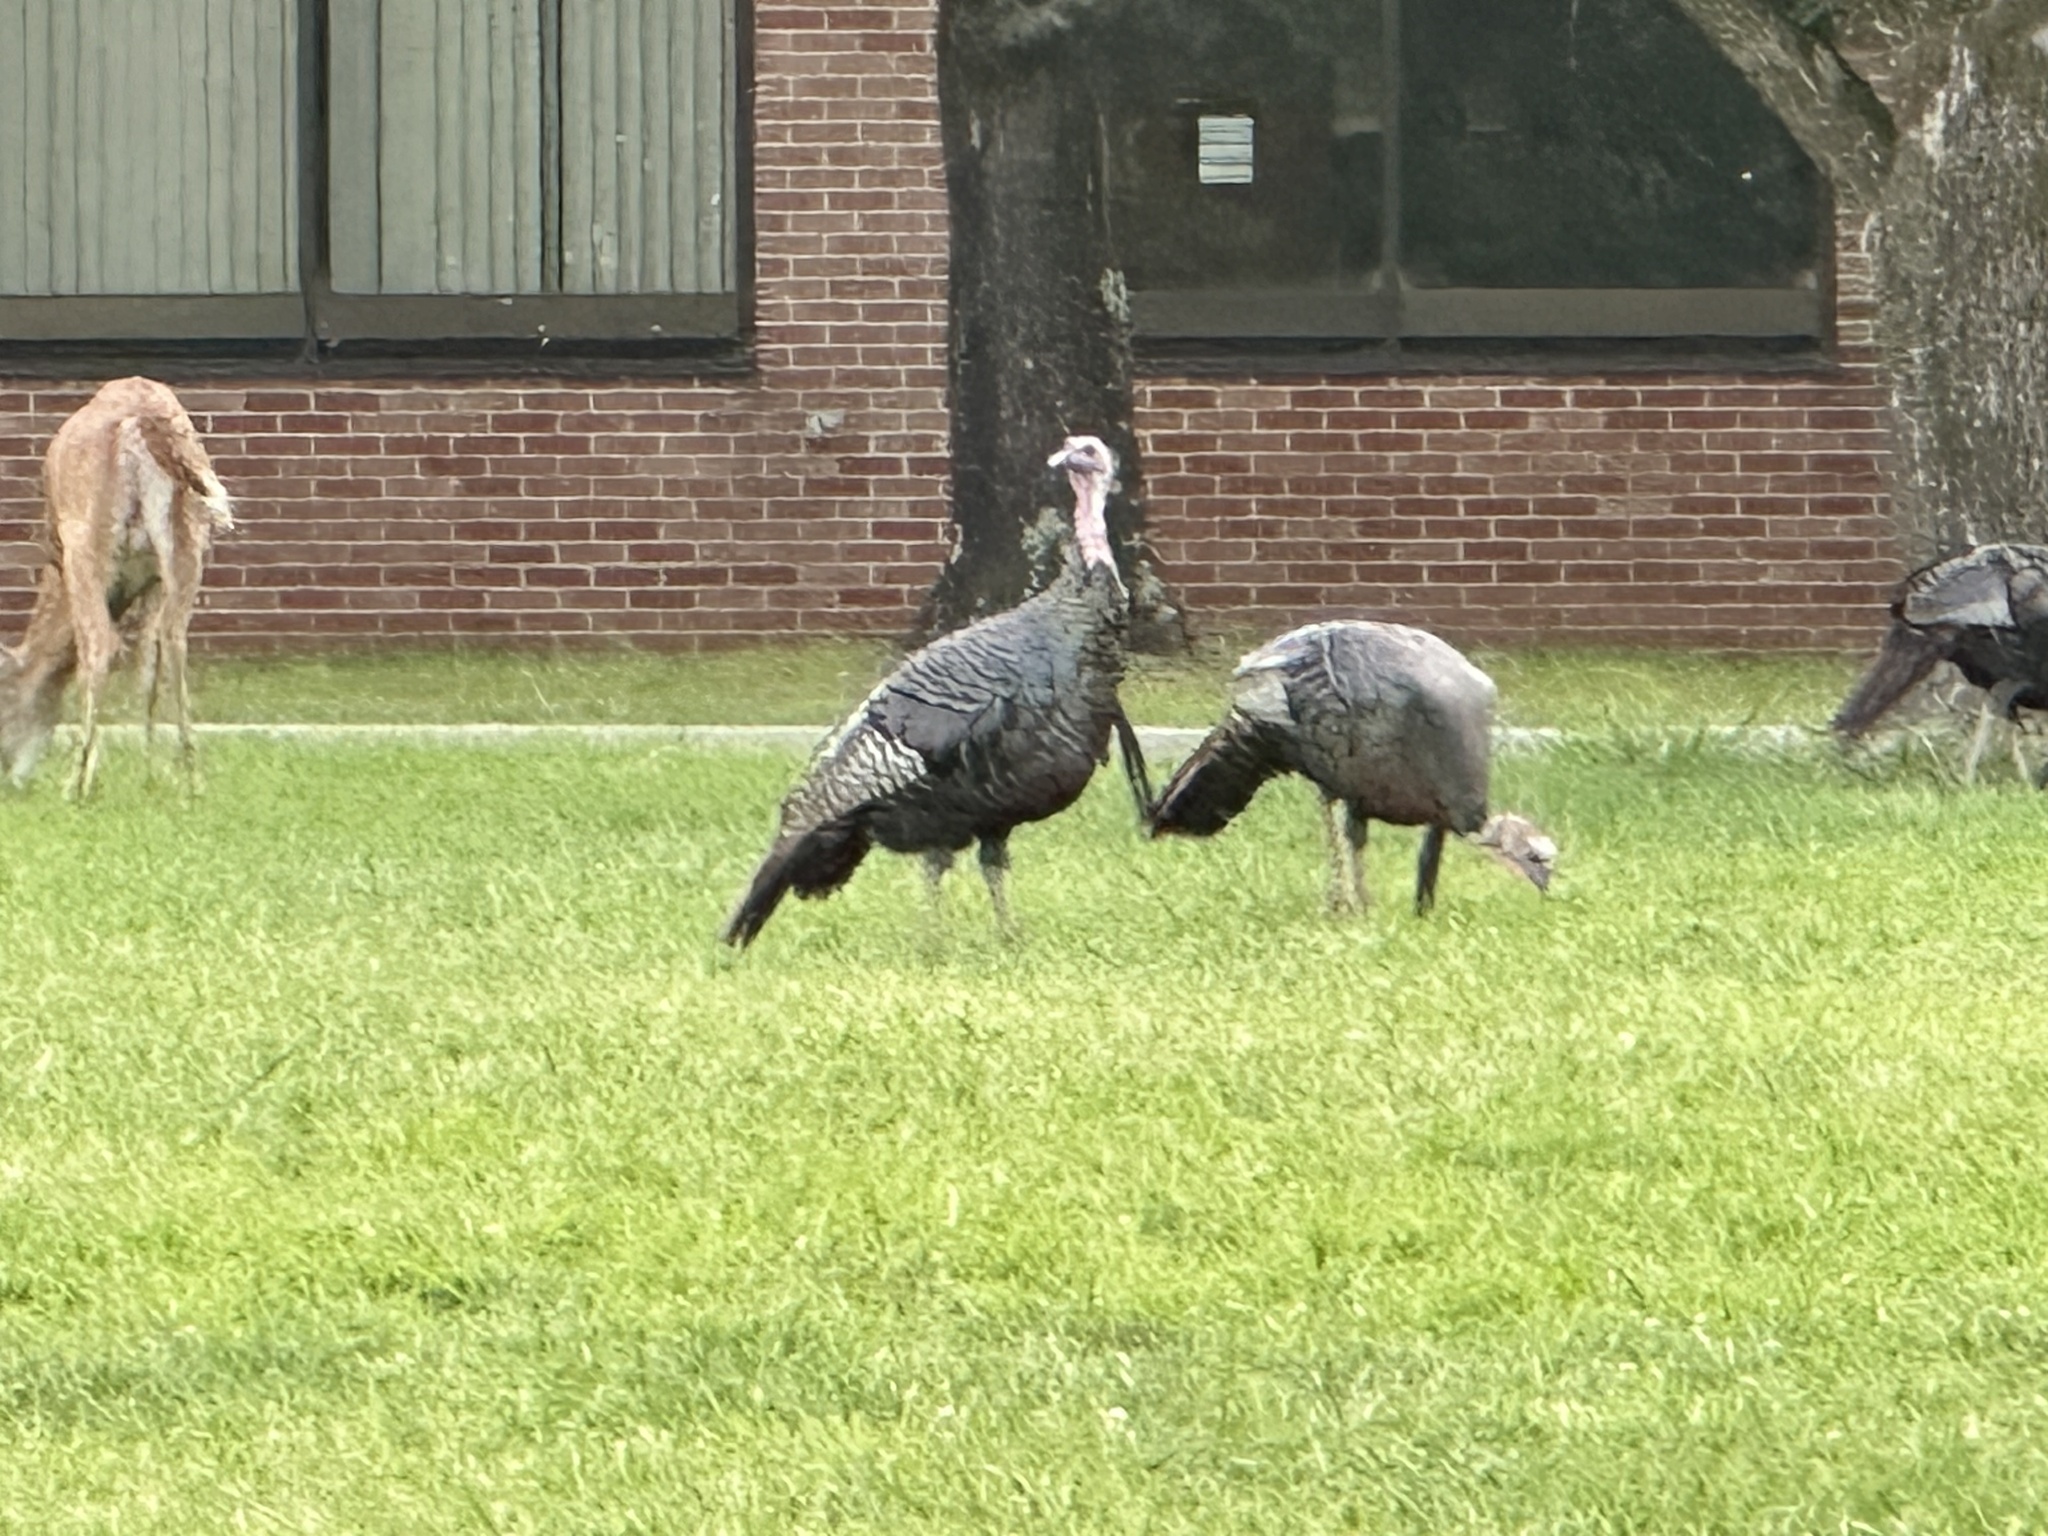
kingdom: Animalia
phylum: Chordata
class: Aves
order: Galliformes
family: Phasianidae
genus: Meleagris
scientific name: Meleagris gallopavo
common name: Wild turkey
